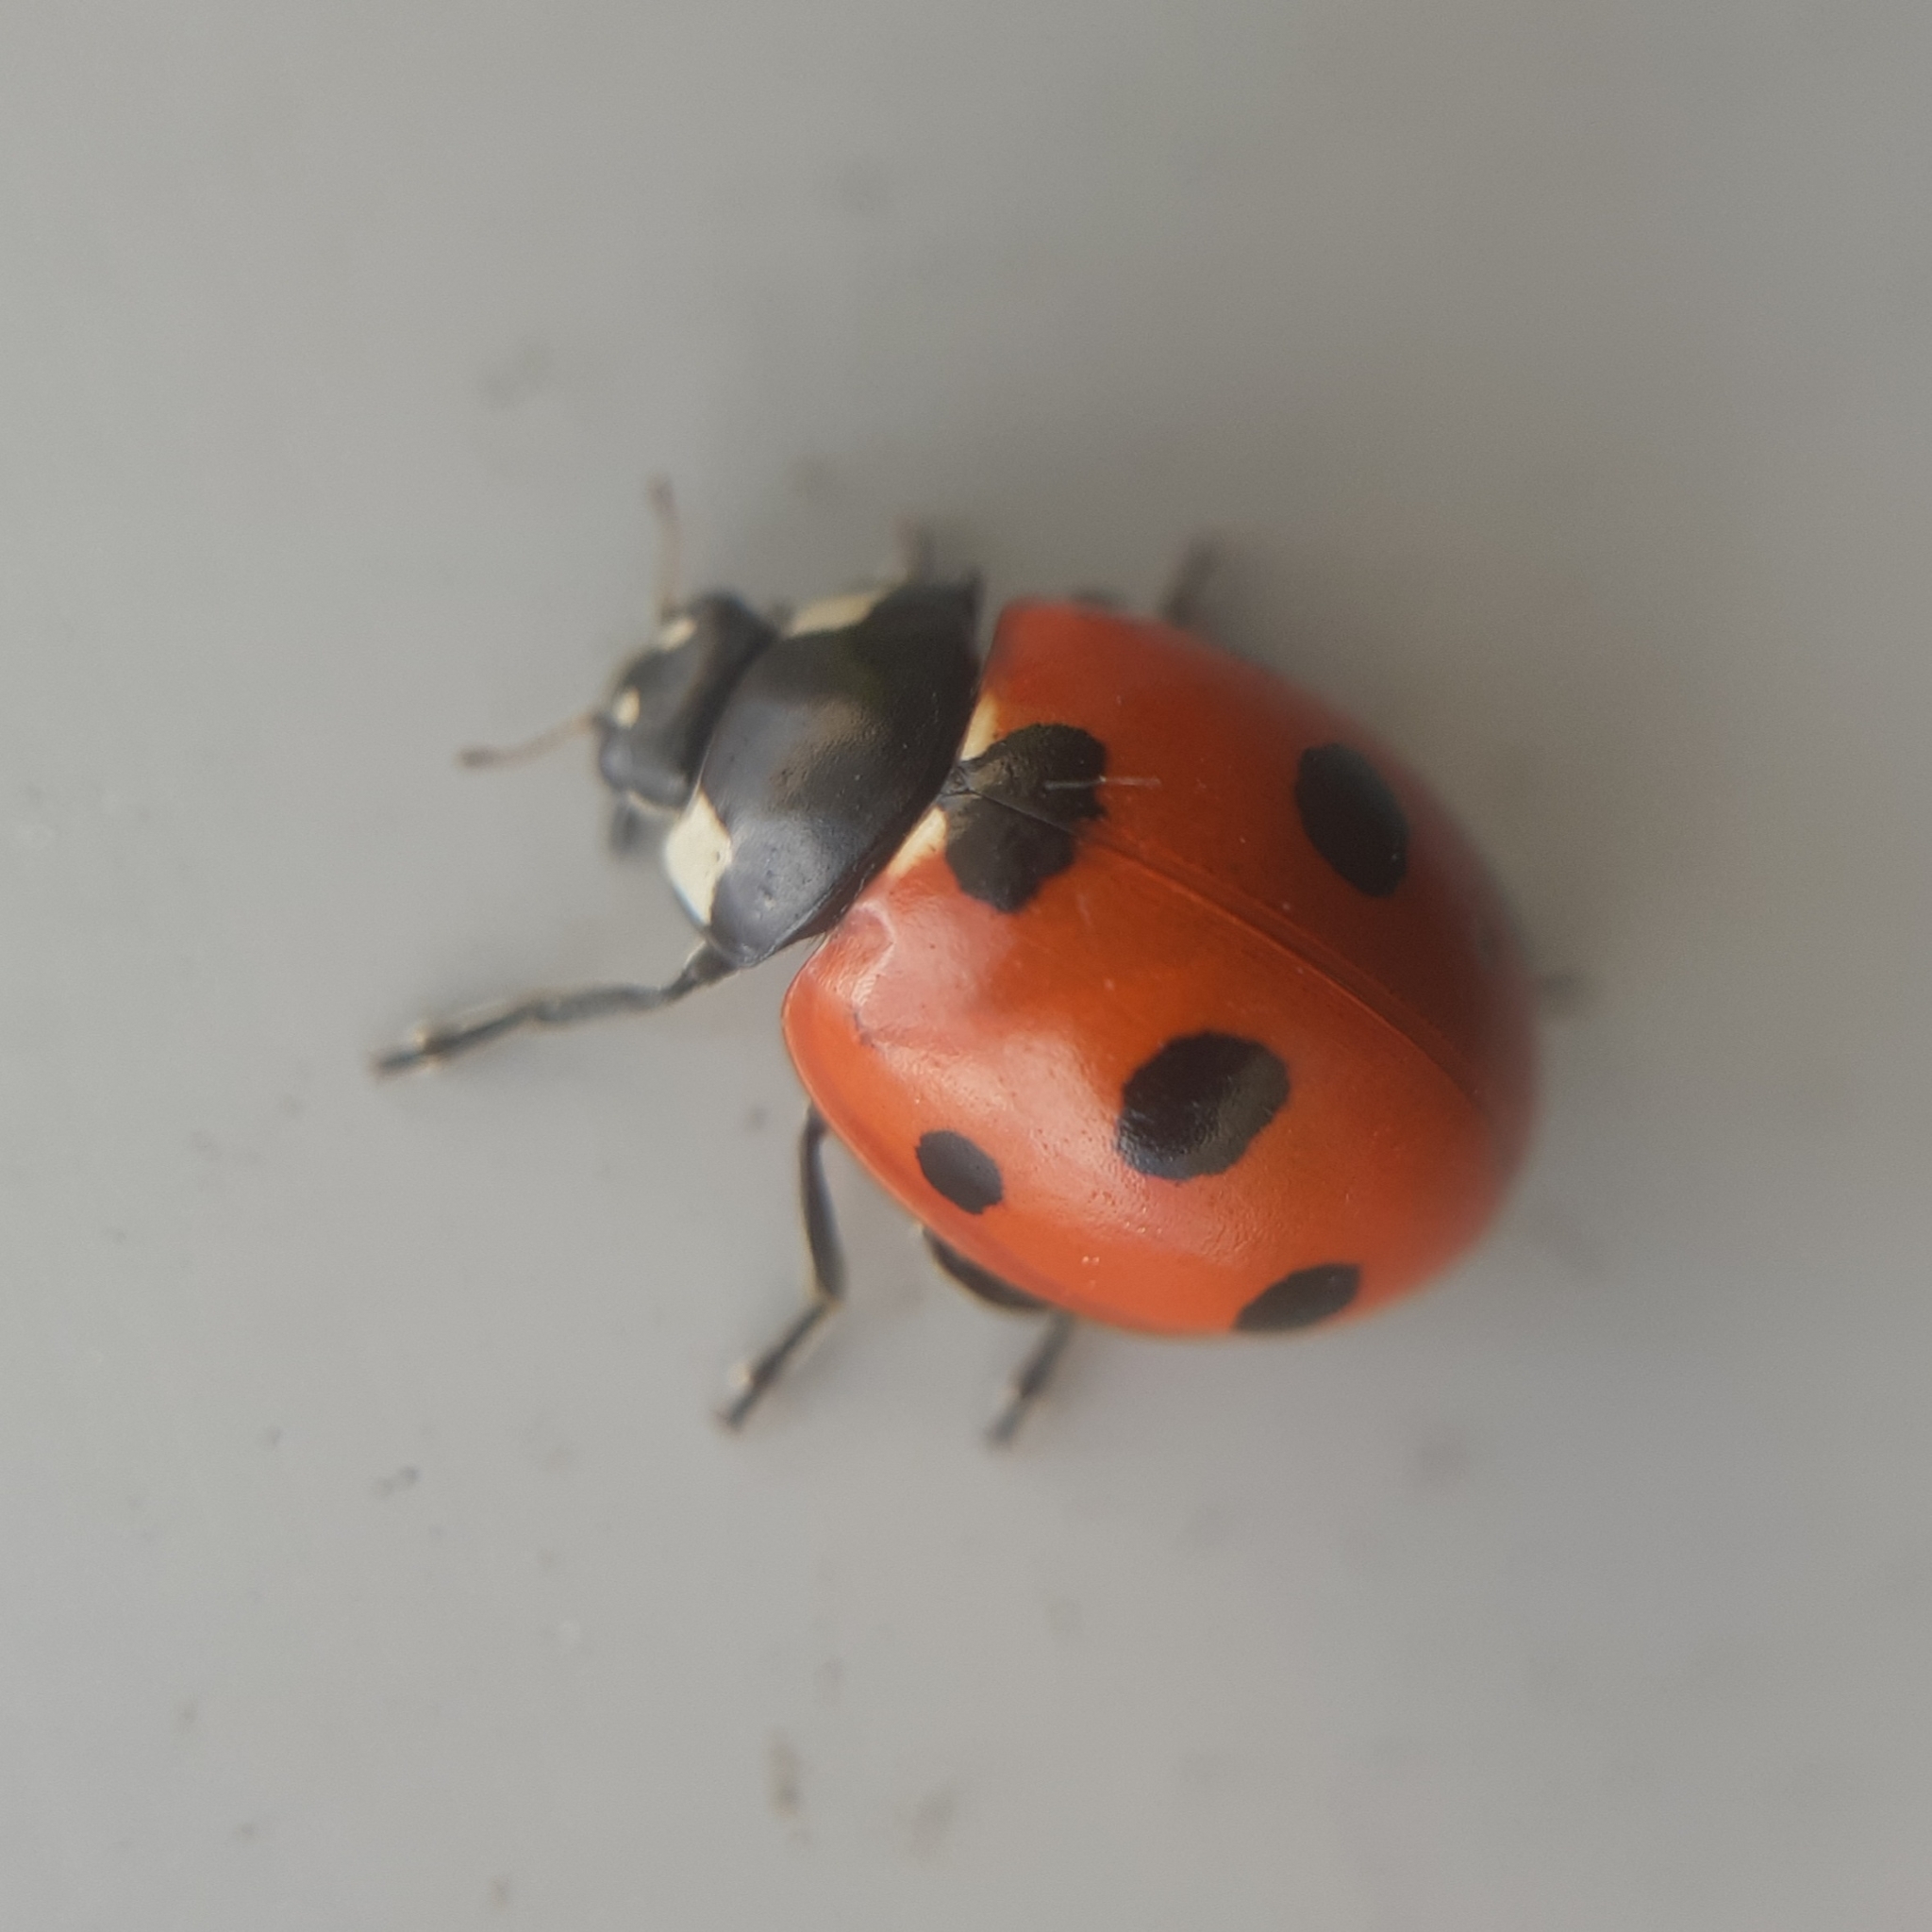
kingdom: Animalia
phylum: Arthropoda
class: Insecta
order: Coleoptera
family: Coccinellidae
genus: Coccinella
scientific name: Coccinella magnifica
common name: Scarce 7-spot ladybird
